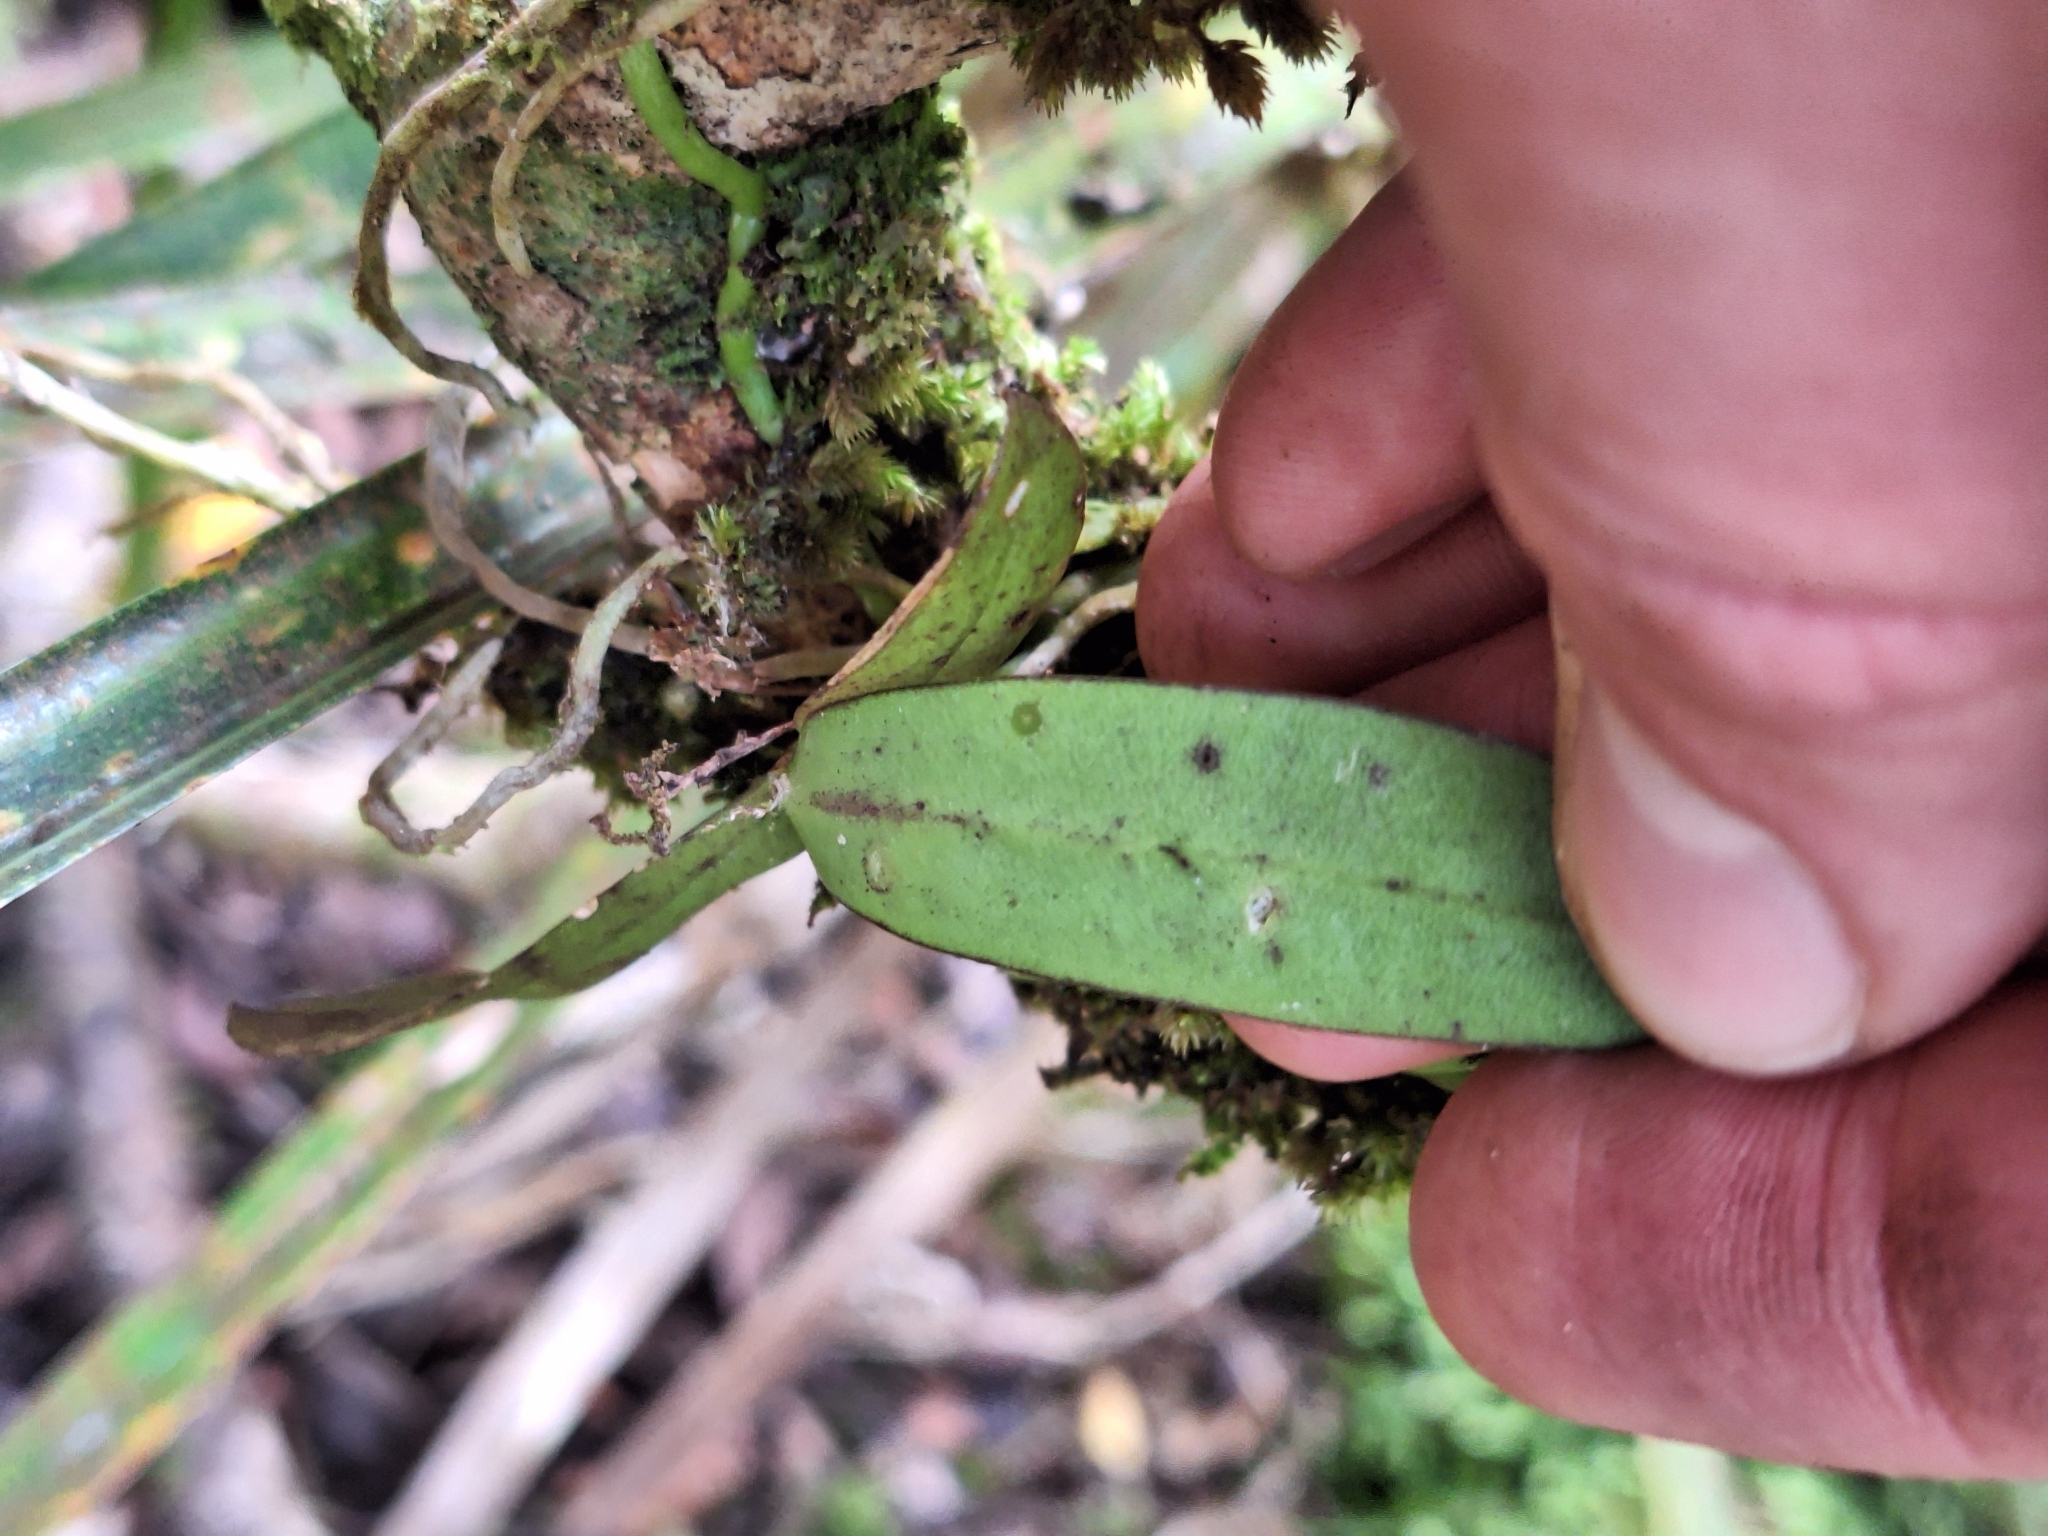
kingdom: Plantae
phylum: Tracheophyta
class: Liliopsida
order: Asparagales
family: Orchidaceae
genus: Drymoanthus
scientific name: Drymoanthus adversus
